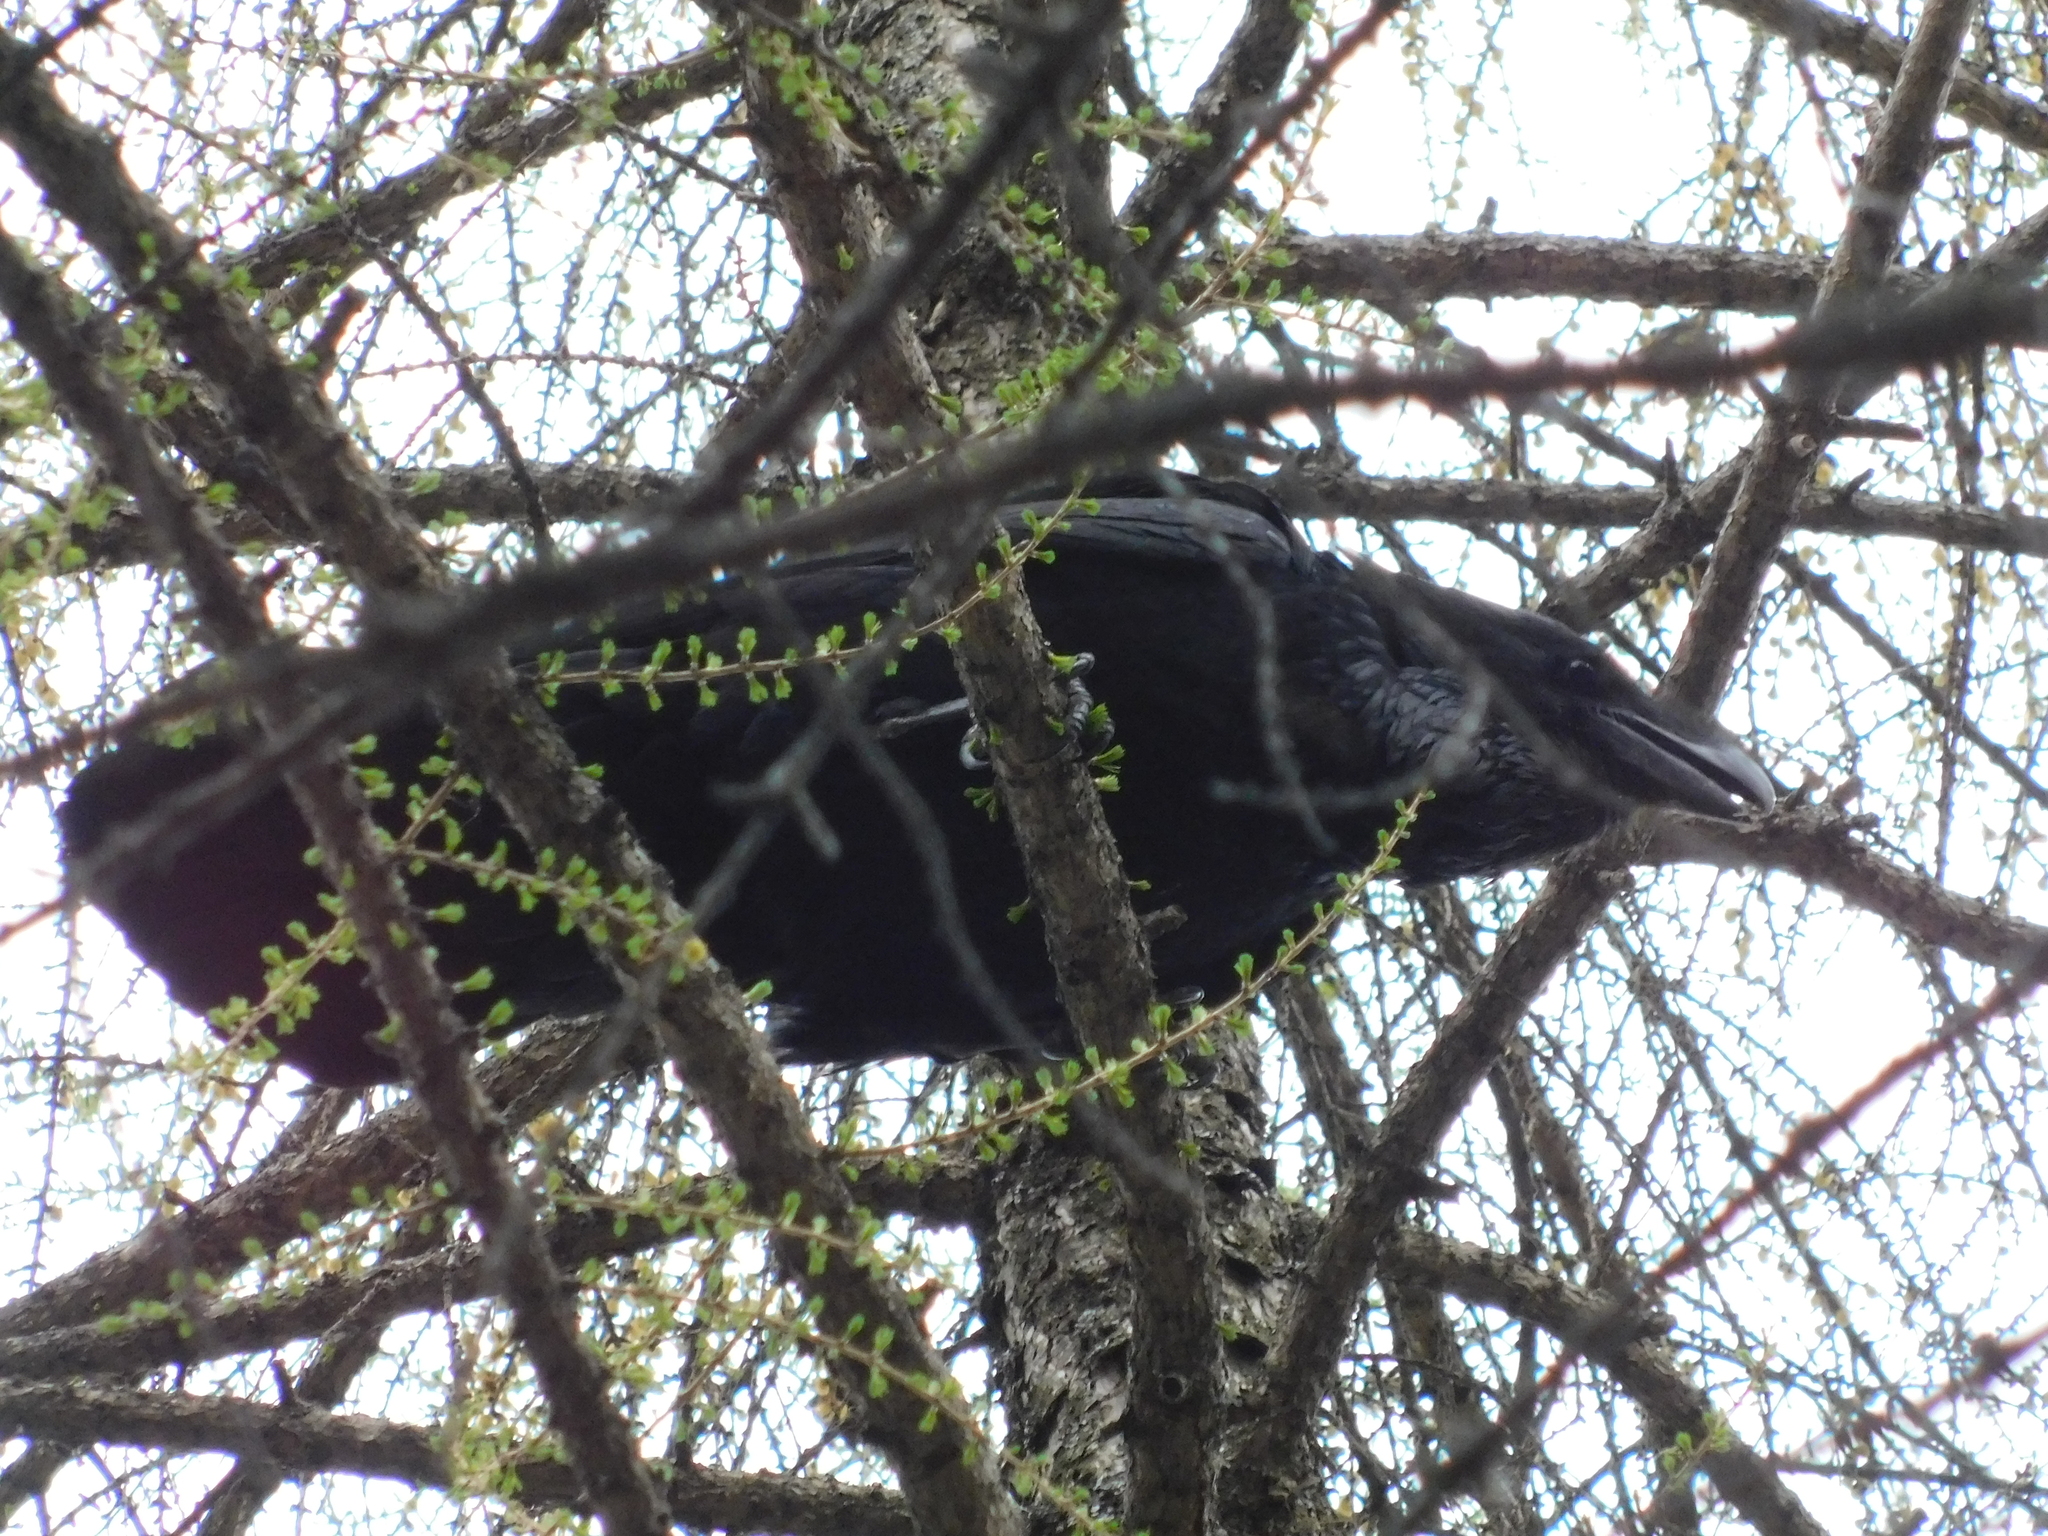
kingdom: Animalia
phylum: Chordata
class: Aves
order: Passeriformes
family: Corvidae
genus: Corvus
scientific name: Corvus corax
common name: Common raven
